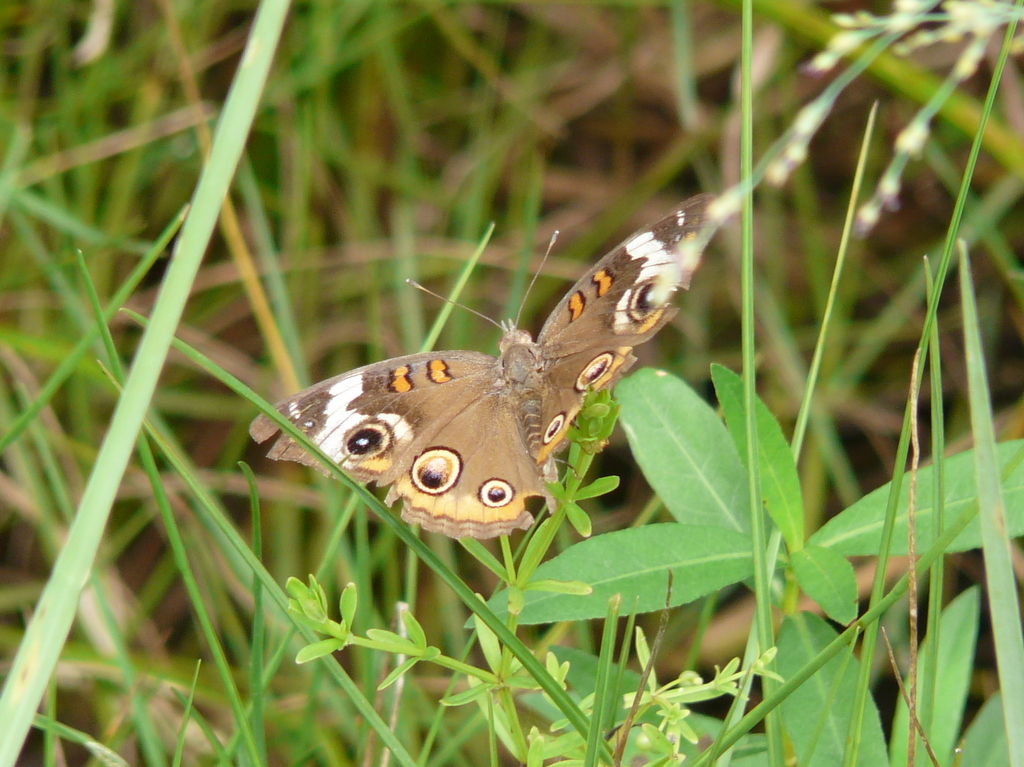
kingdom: Animalia
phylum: Arthropoda
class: Insecta
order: Lepidoptera
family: Nymphalidae
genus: Junonia
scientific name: Junonia coenia
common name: Common buckeye
